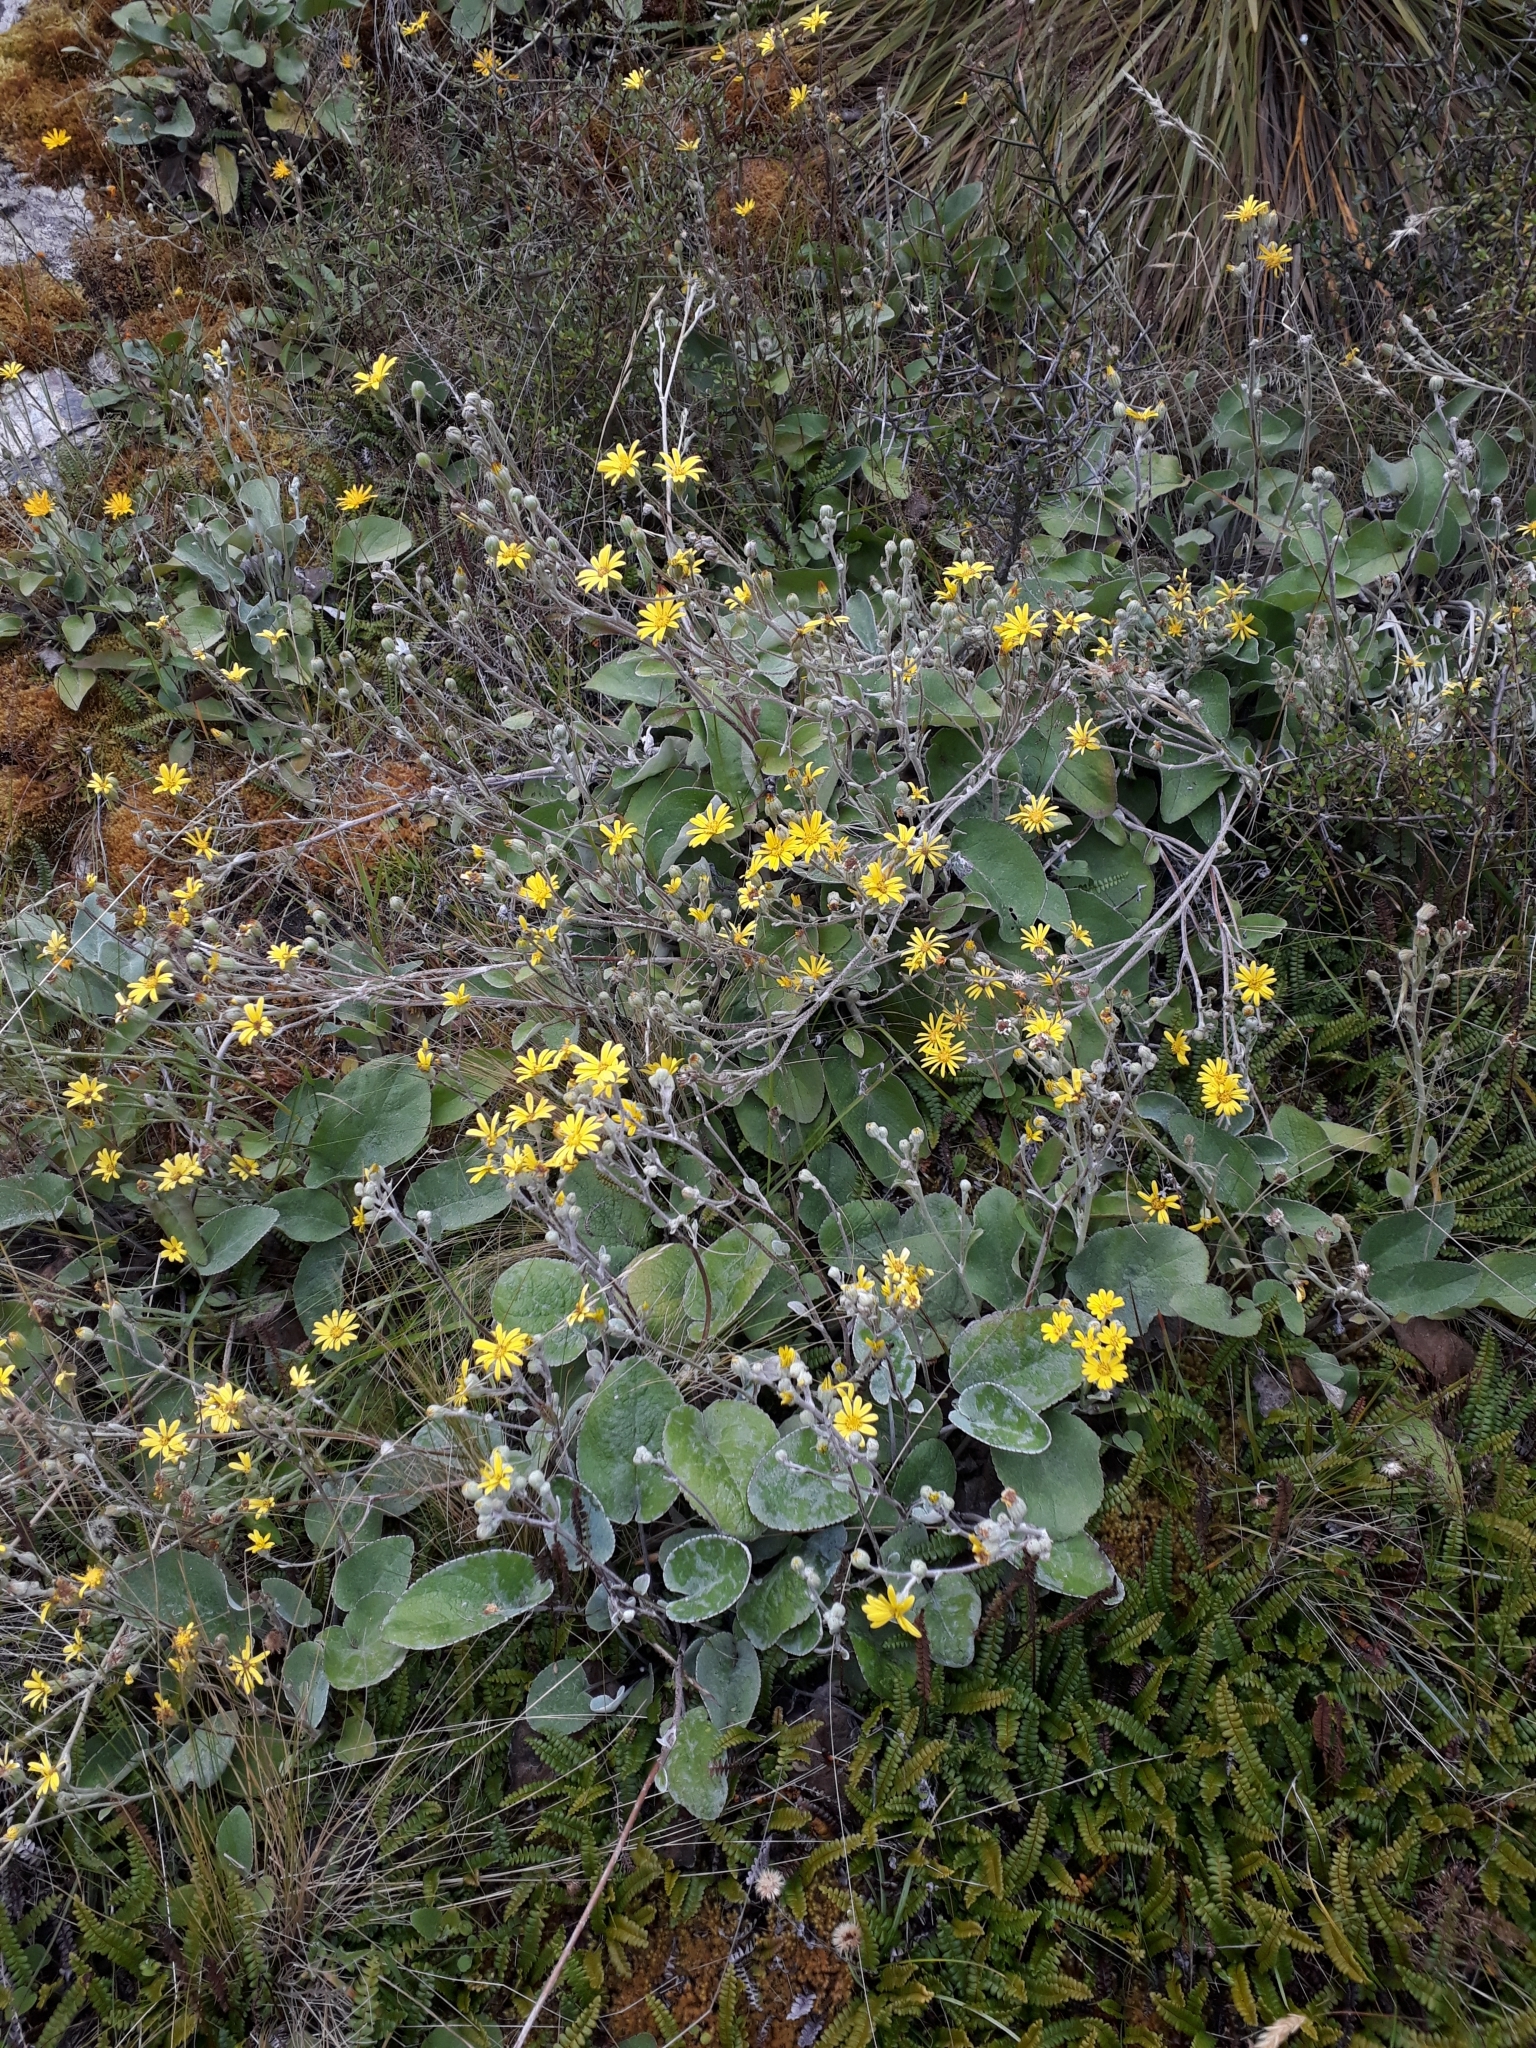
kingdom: Plantae
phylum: Tracheophyta
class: Magnoliopsida
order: Asterales
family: Asteraceae
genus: Brachyglottis
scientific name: Brachyglottis lagopus
